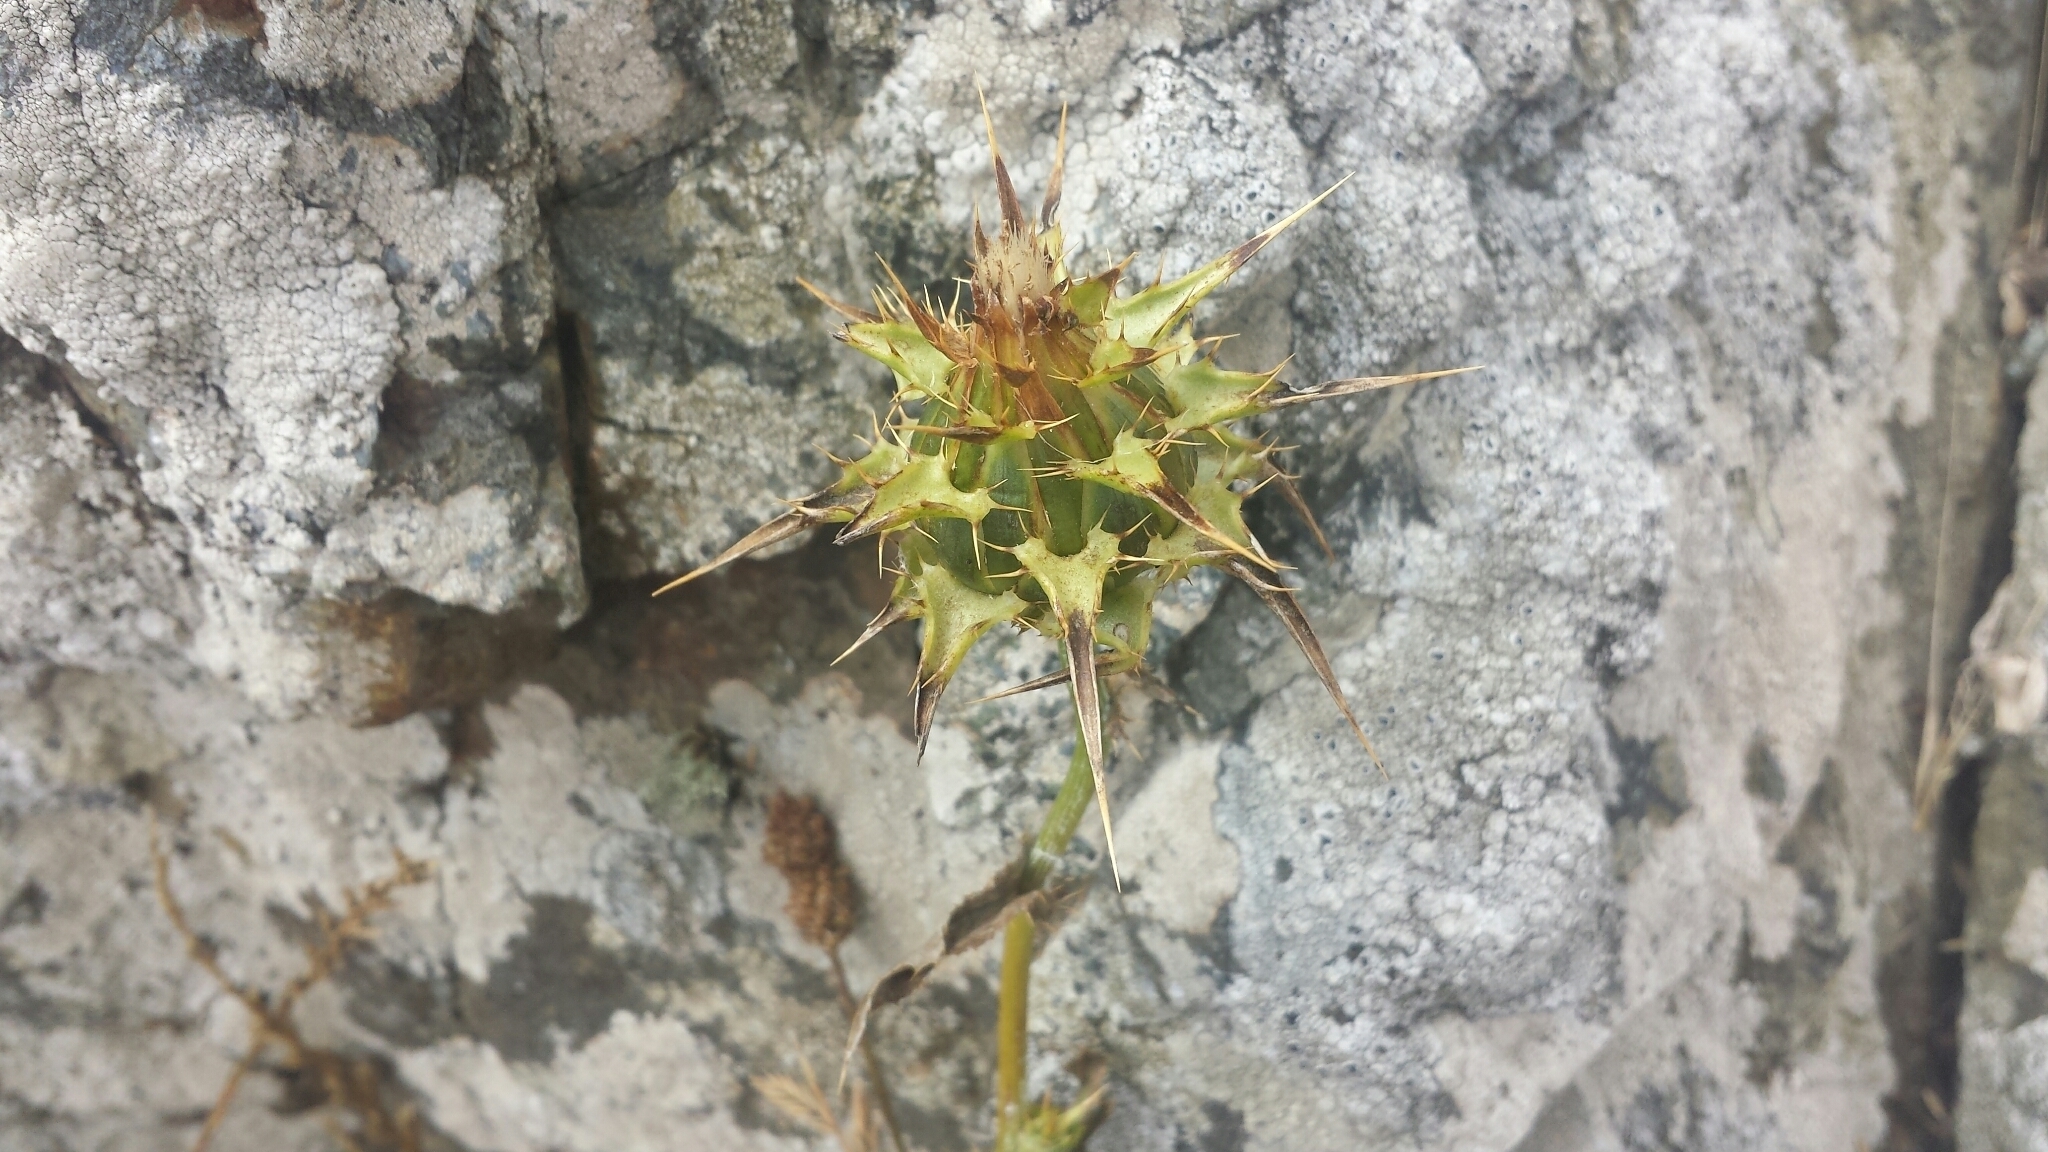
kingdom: Plantae
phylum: Tracheophyta
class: Magnoliopsida
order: Asterales
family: Asteraceae
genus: Silybum
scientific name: Silybum marianum
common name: Milk thistle
